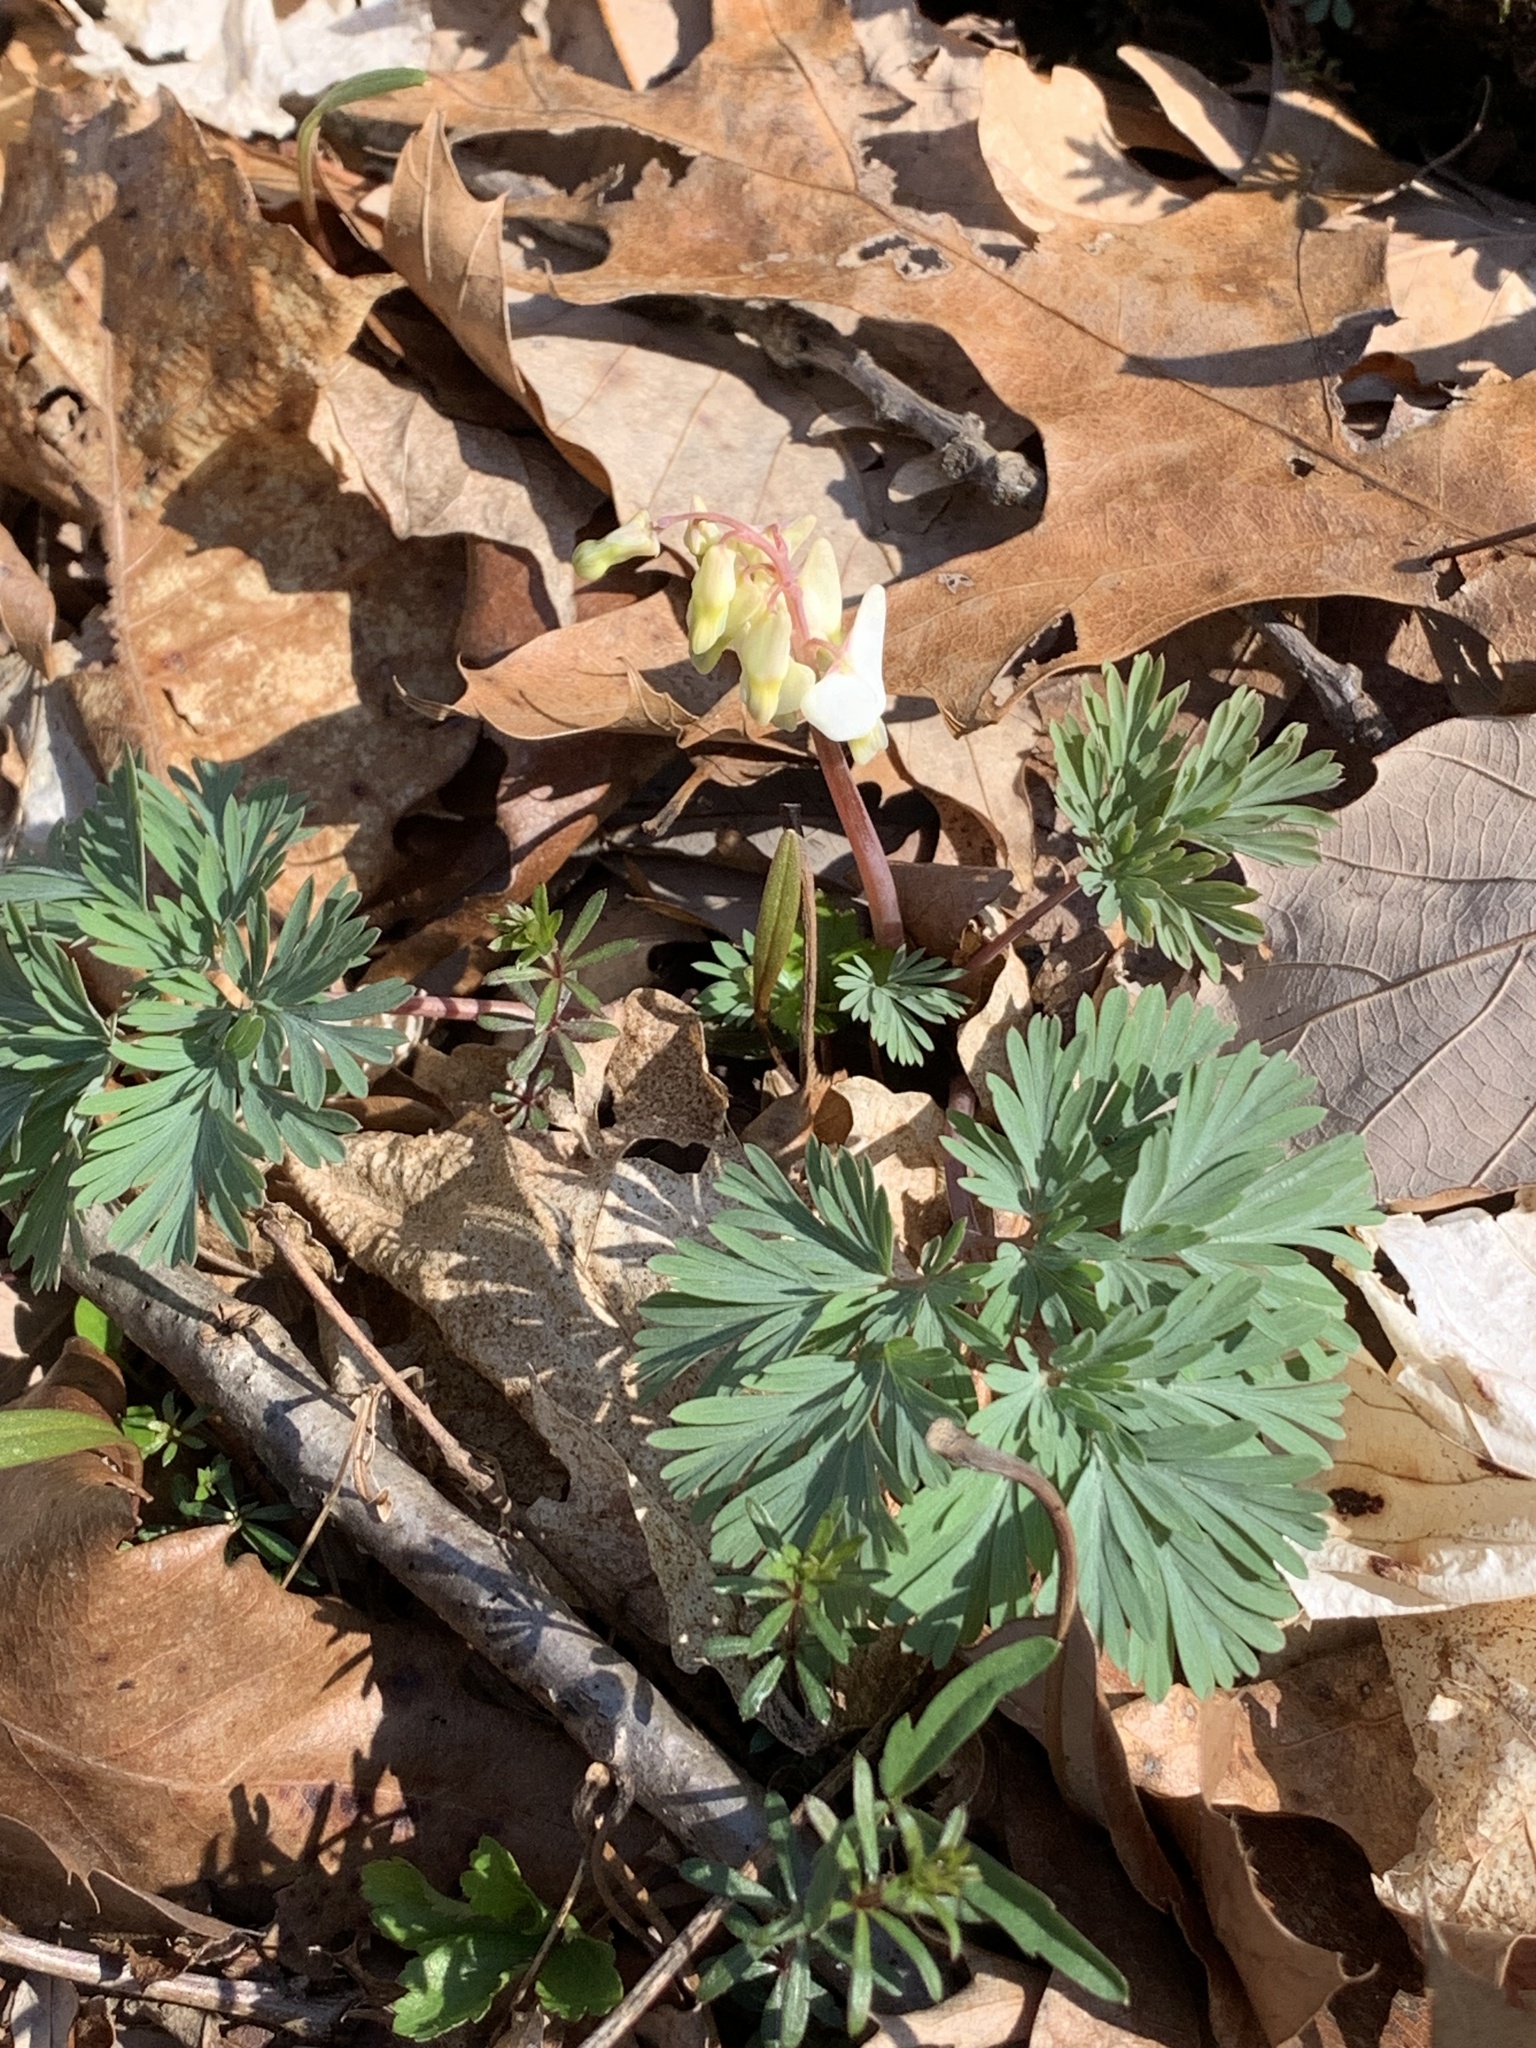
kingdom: Plantae
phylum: Tracheophyta
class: Magnoliopsida
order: Ranunculales
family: Papaveraceae
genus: Dicentra
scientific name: Dicentra cucullaria
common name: Dutchman's breeches
